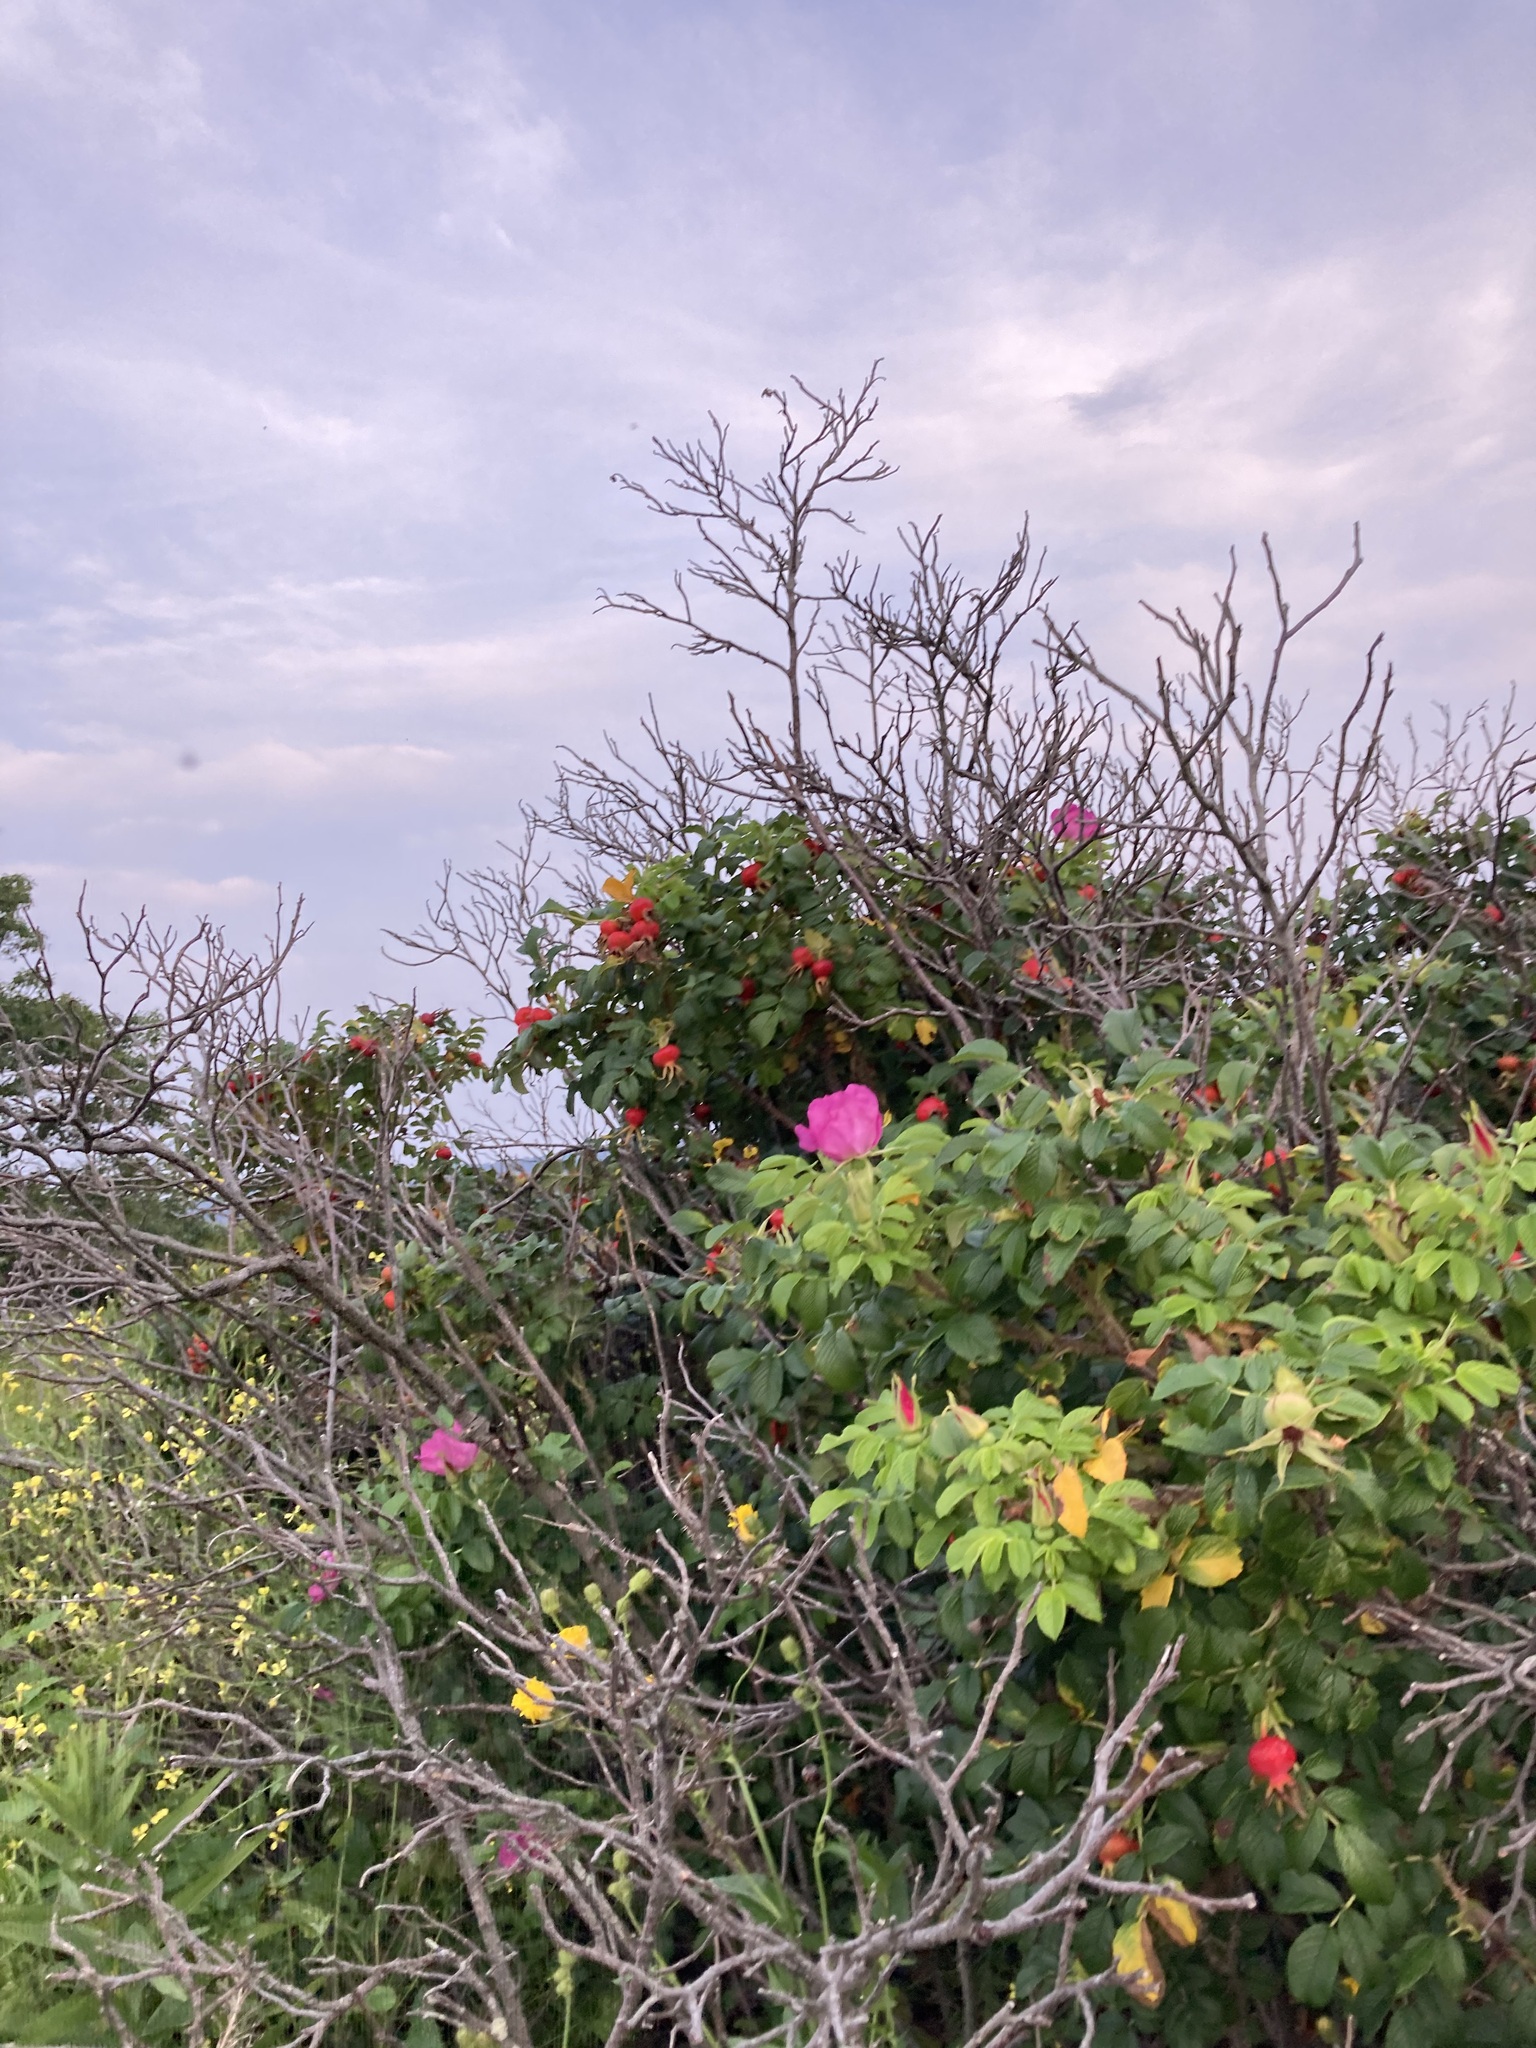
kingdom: Plantae
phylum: Tracheophyta
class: Magnoliopsida
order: Rosales
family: Rosaceae
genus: Rosa
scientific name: Rosa rugosa
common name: Japanese rose
